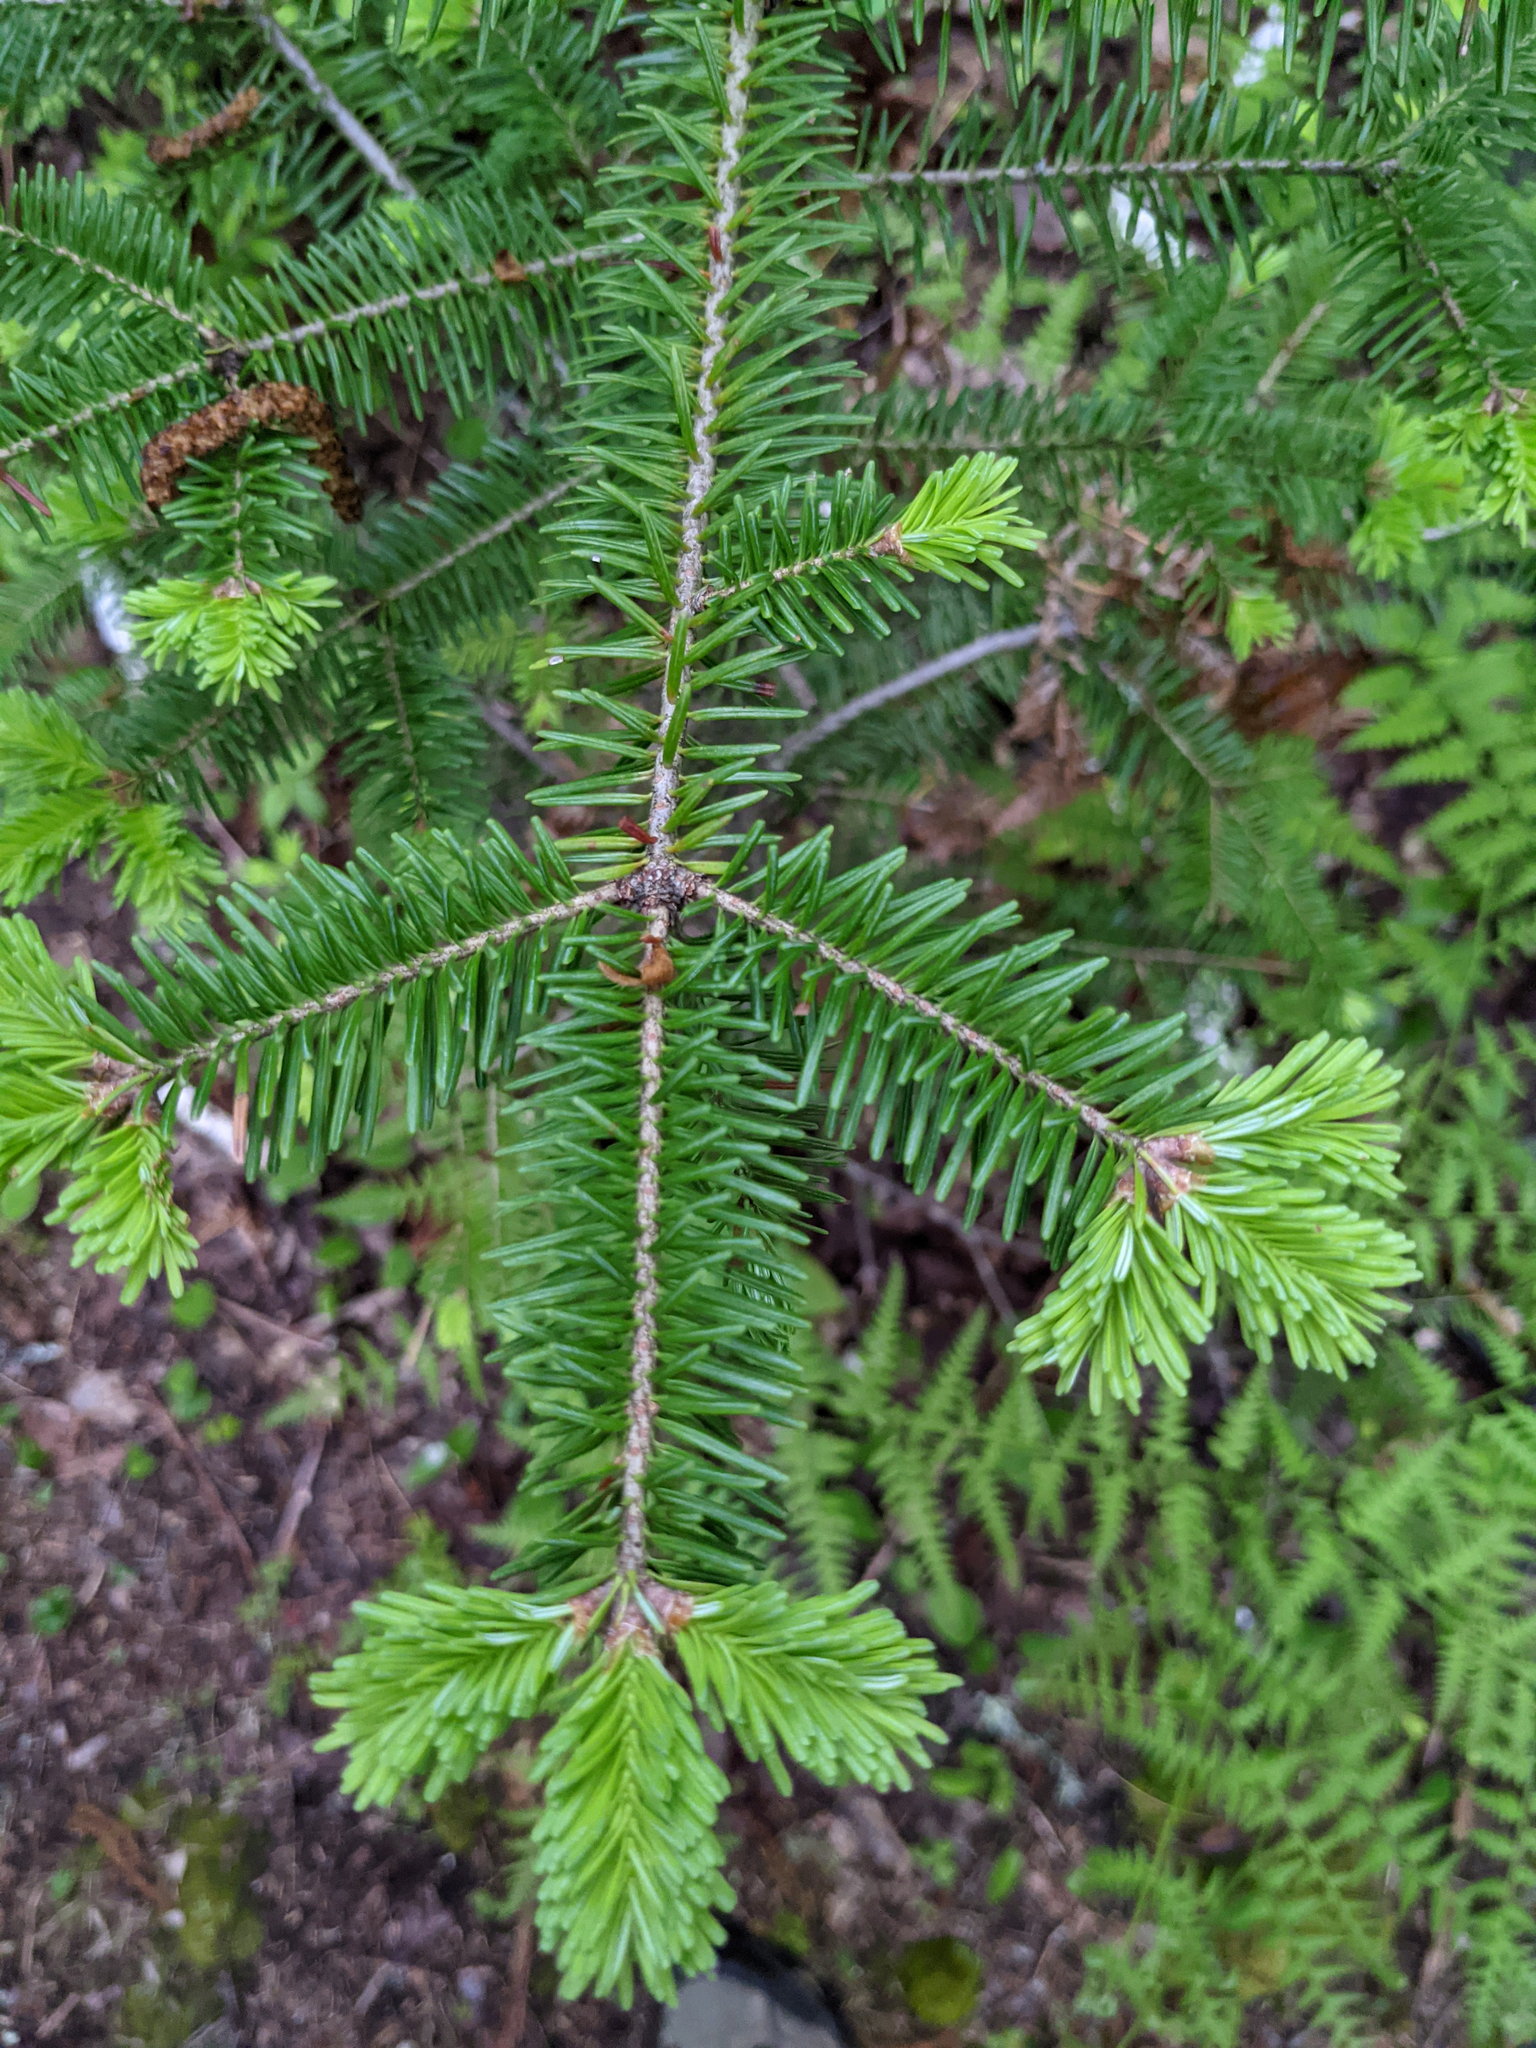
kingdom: Plantae
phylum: Tracheophyta
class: Pinopsida
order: Pinales
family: Pinaceae
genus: Abies
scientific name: Abies balsamea
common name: Balsam fir
